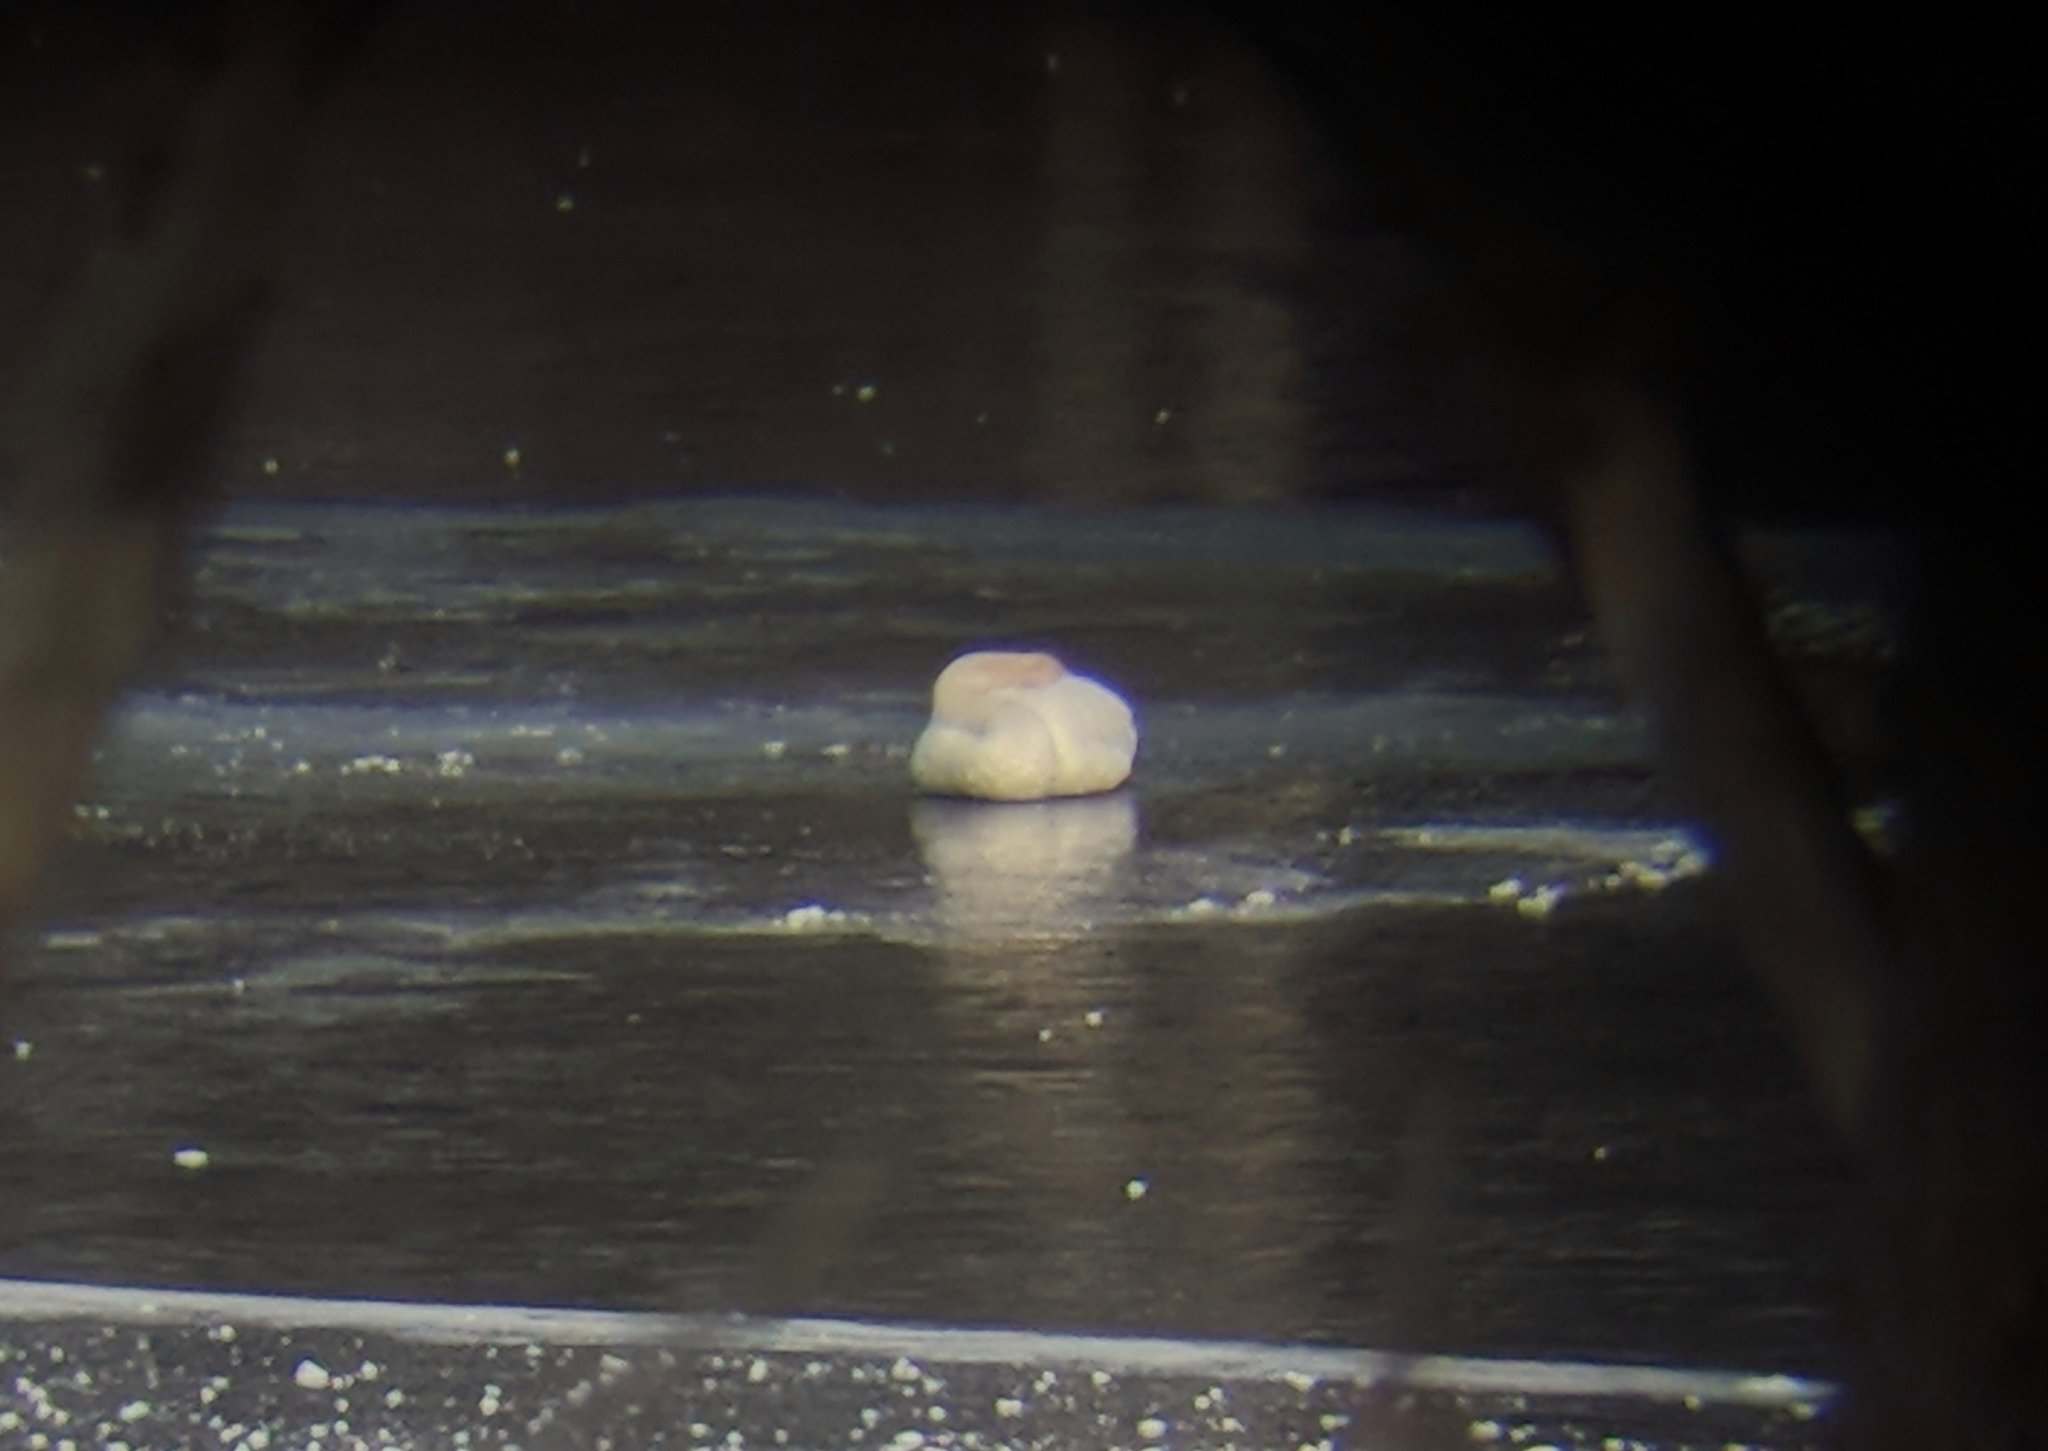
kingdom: Animalia
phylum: Chordata
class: Aves
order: Anseriformes
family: Anatidae
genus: Cygnus
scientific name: Cygnus buccinator
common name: Trumpeter swan
